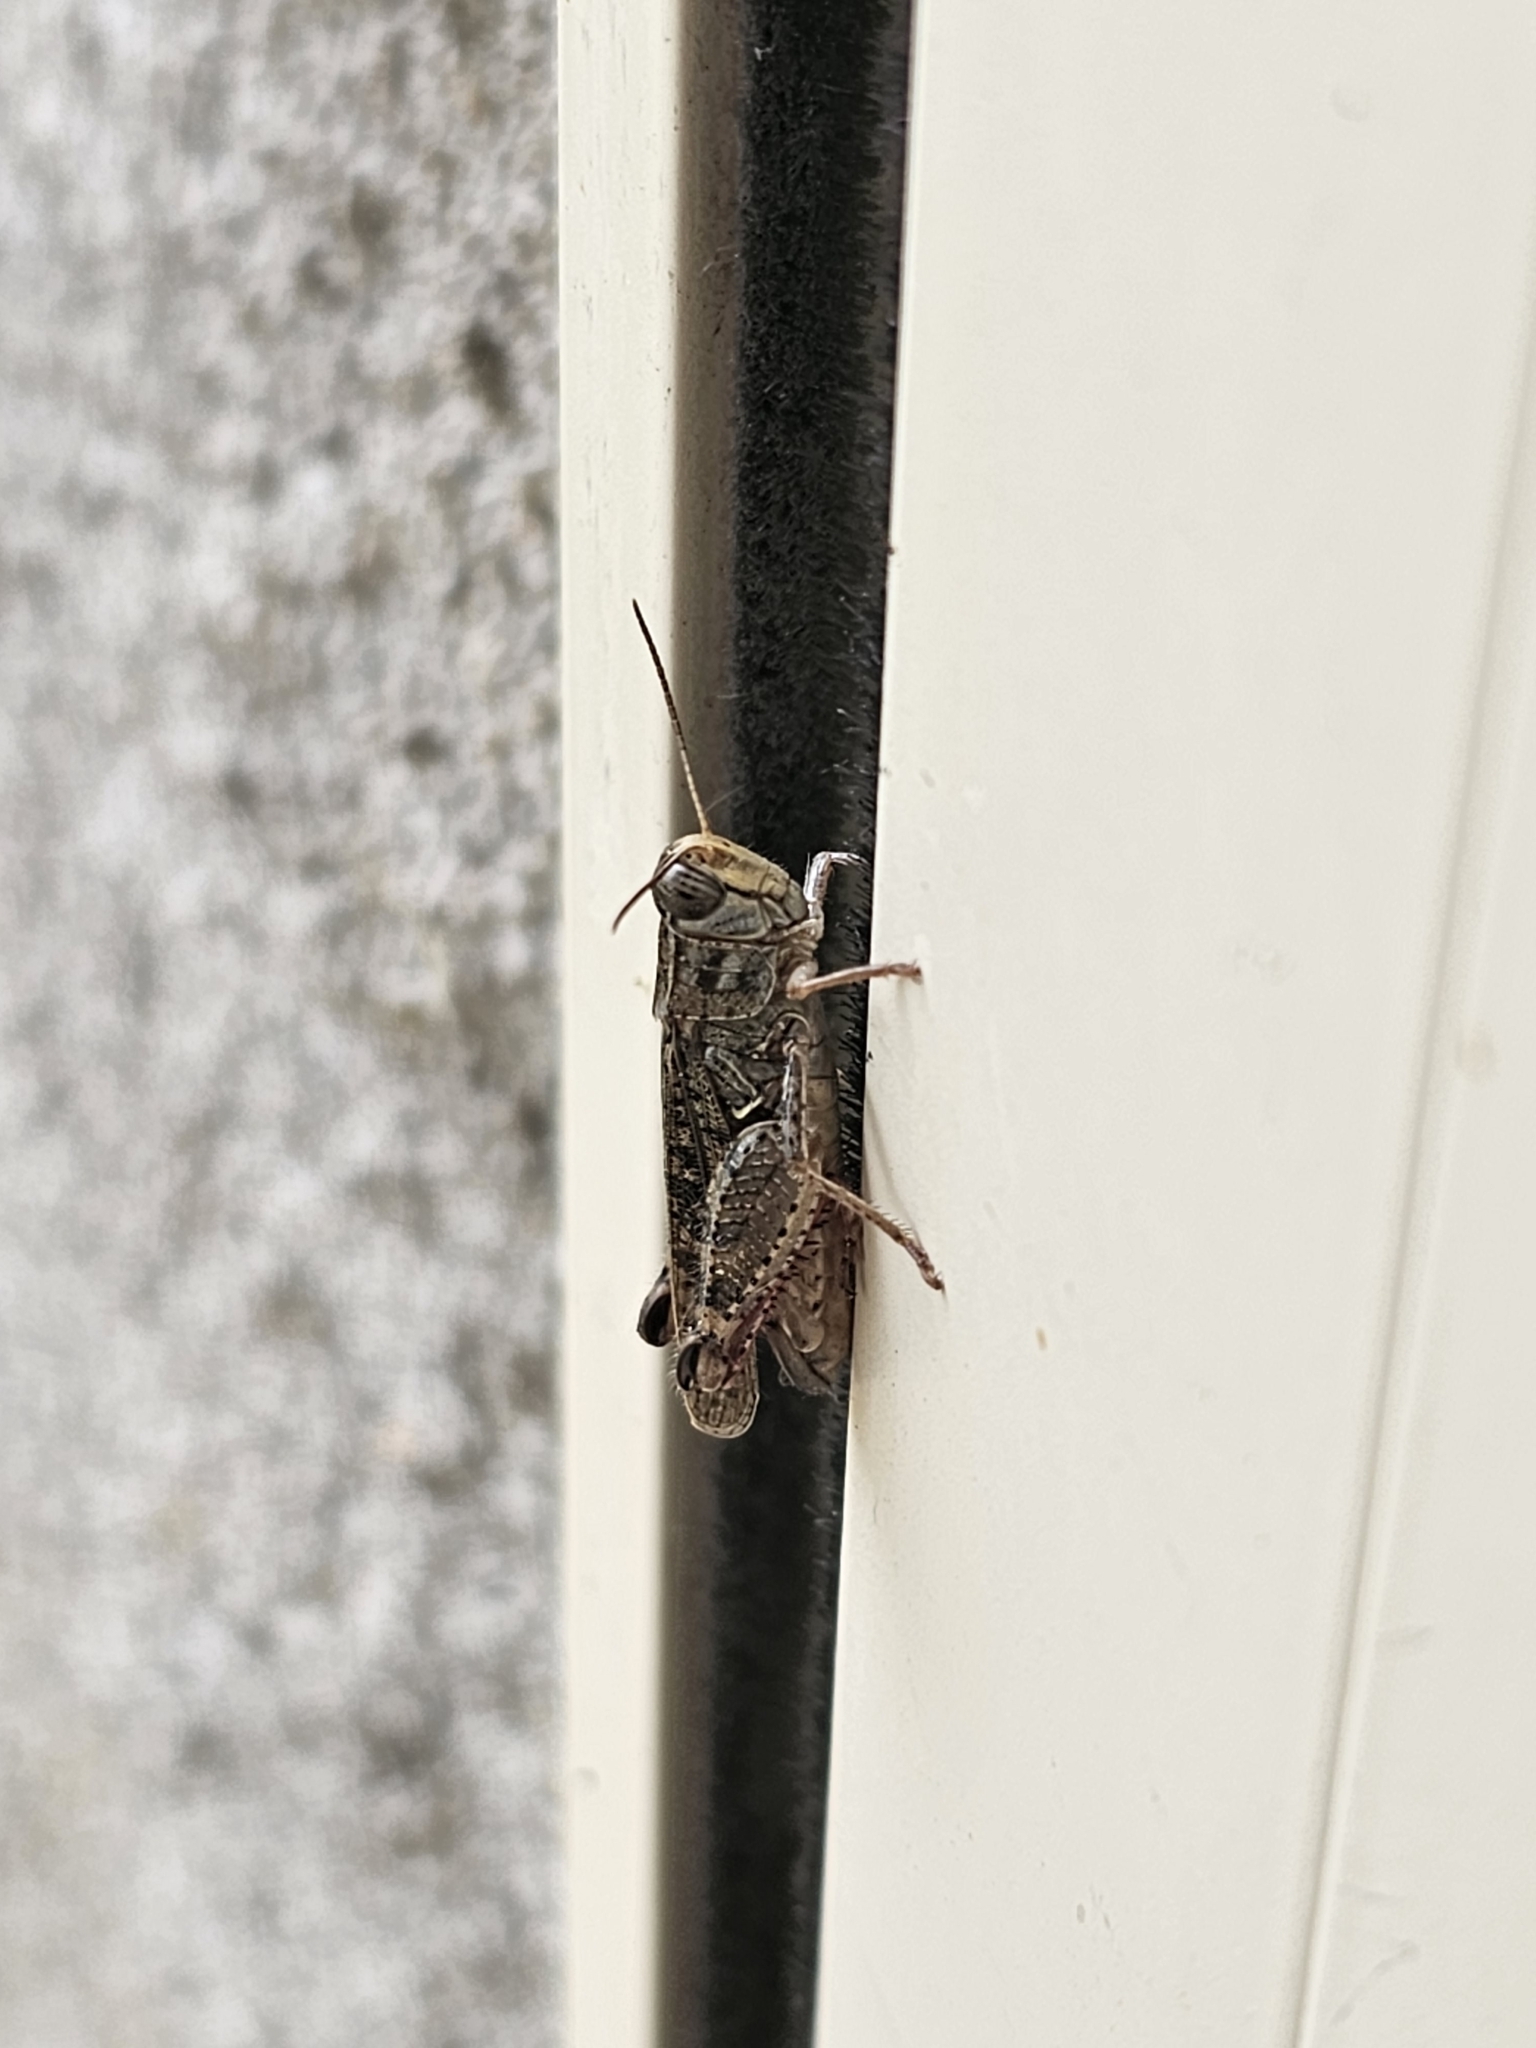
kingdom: Animalia
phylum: Arthropoda
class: Insecta
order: Orthoptera
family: Acrididae
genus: Calliptamus
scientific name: Calliptamus italicus
